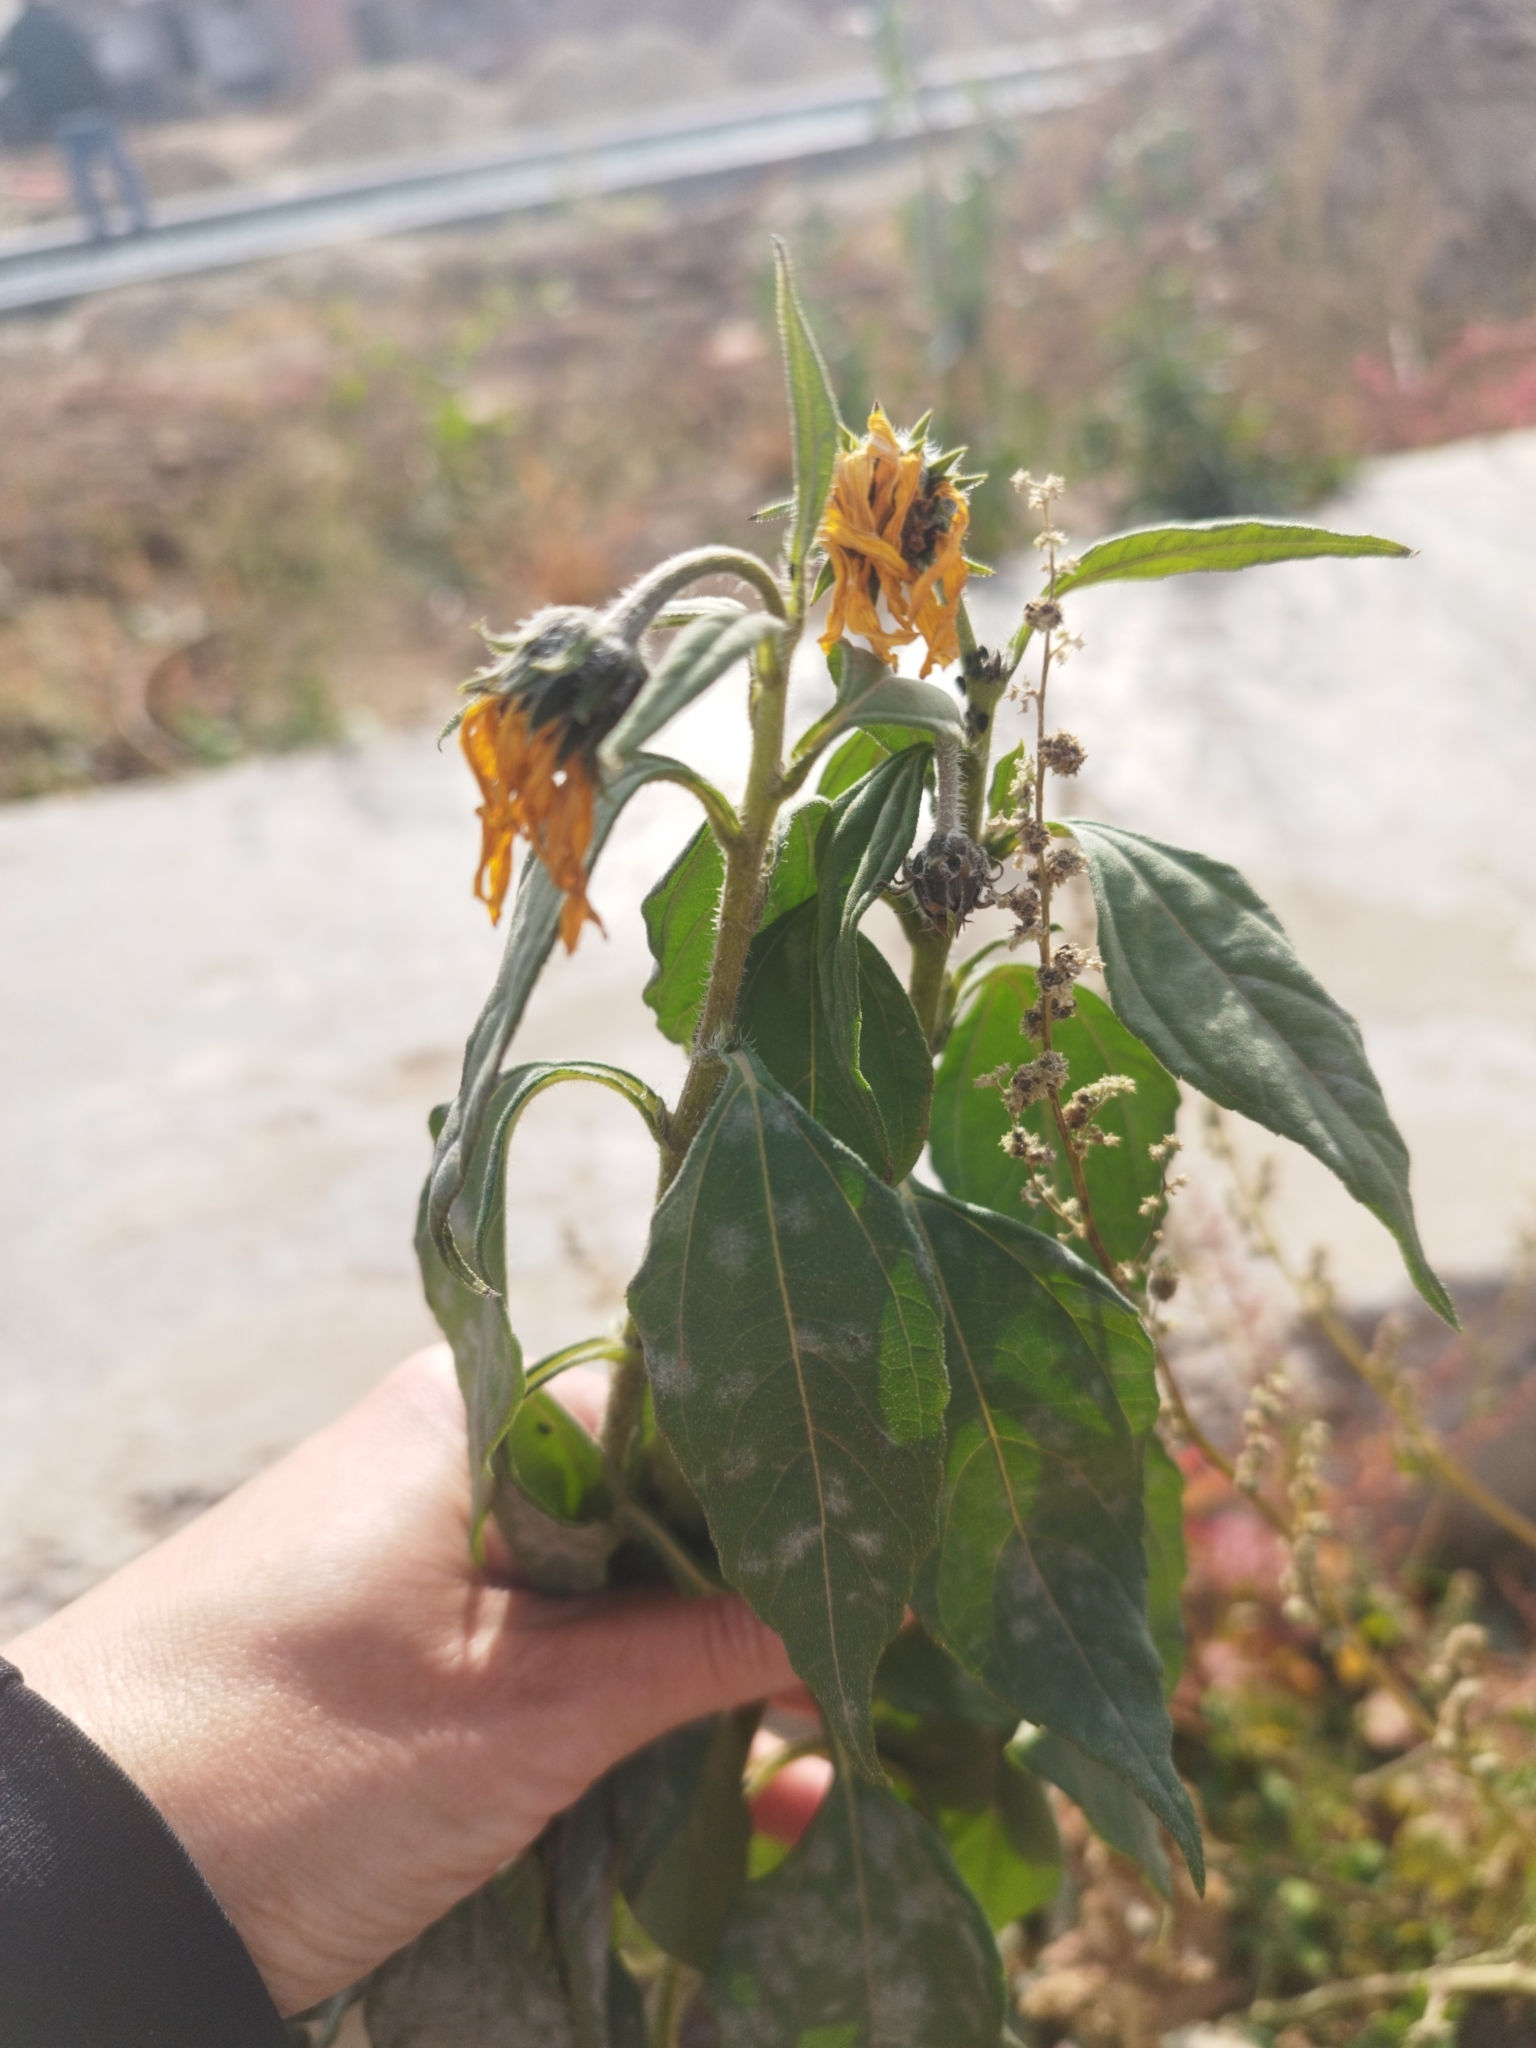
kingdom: Plantae
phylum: Tracheophyta
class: Magnoliopsida
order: Asterales
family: Asteraceae
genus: Helianthus
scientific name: Helianthus tuberosus
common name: Jerusalem artichoke
